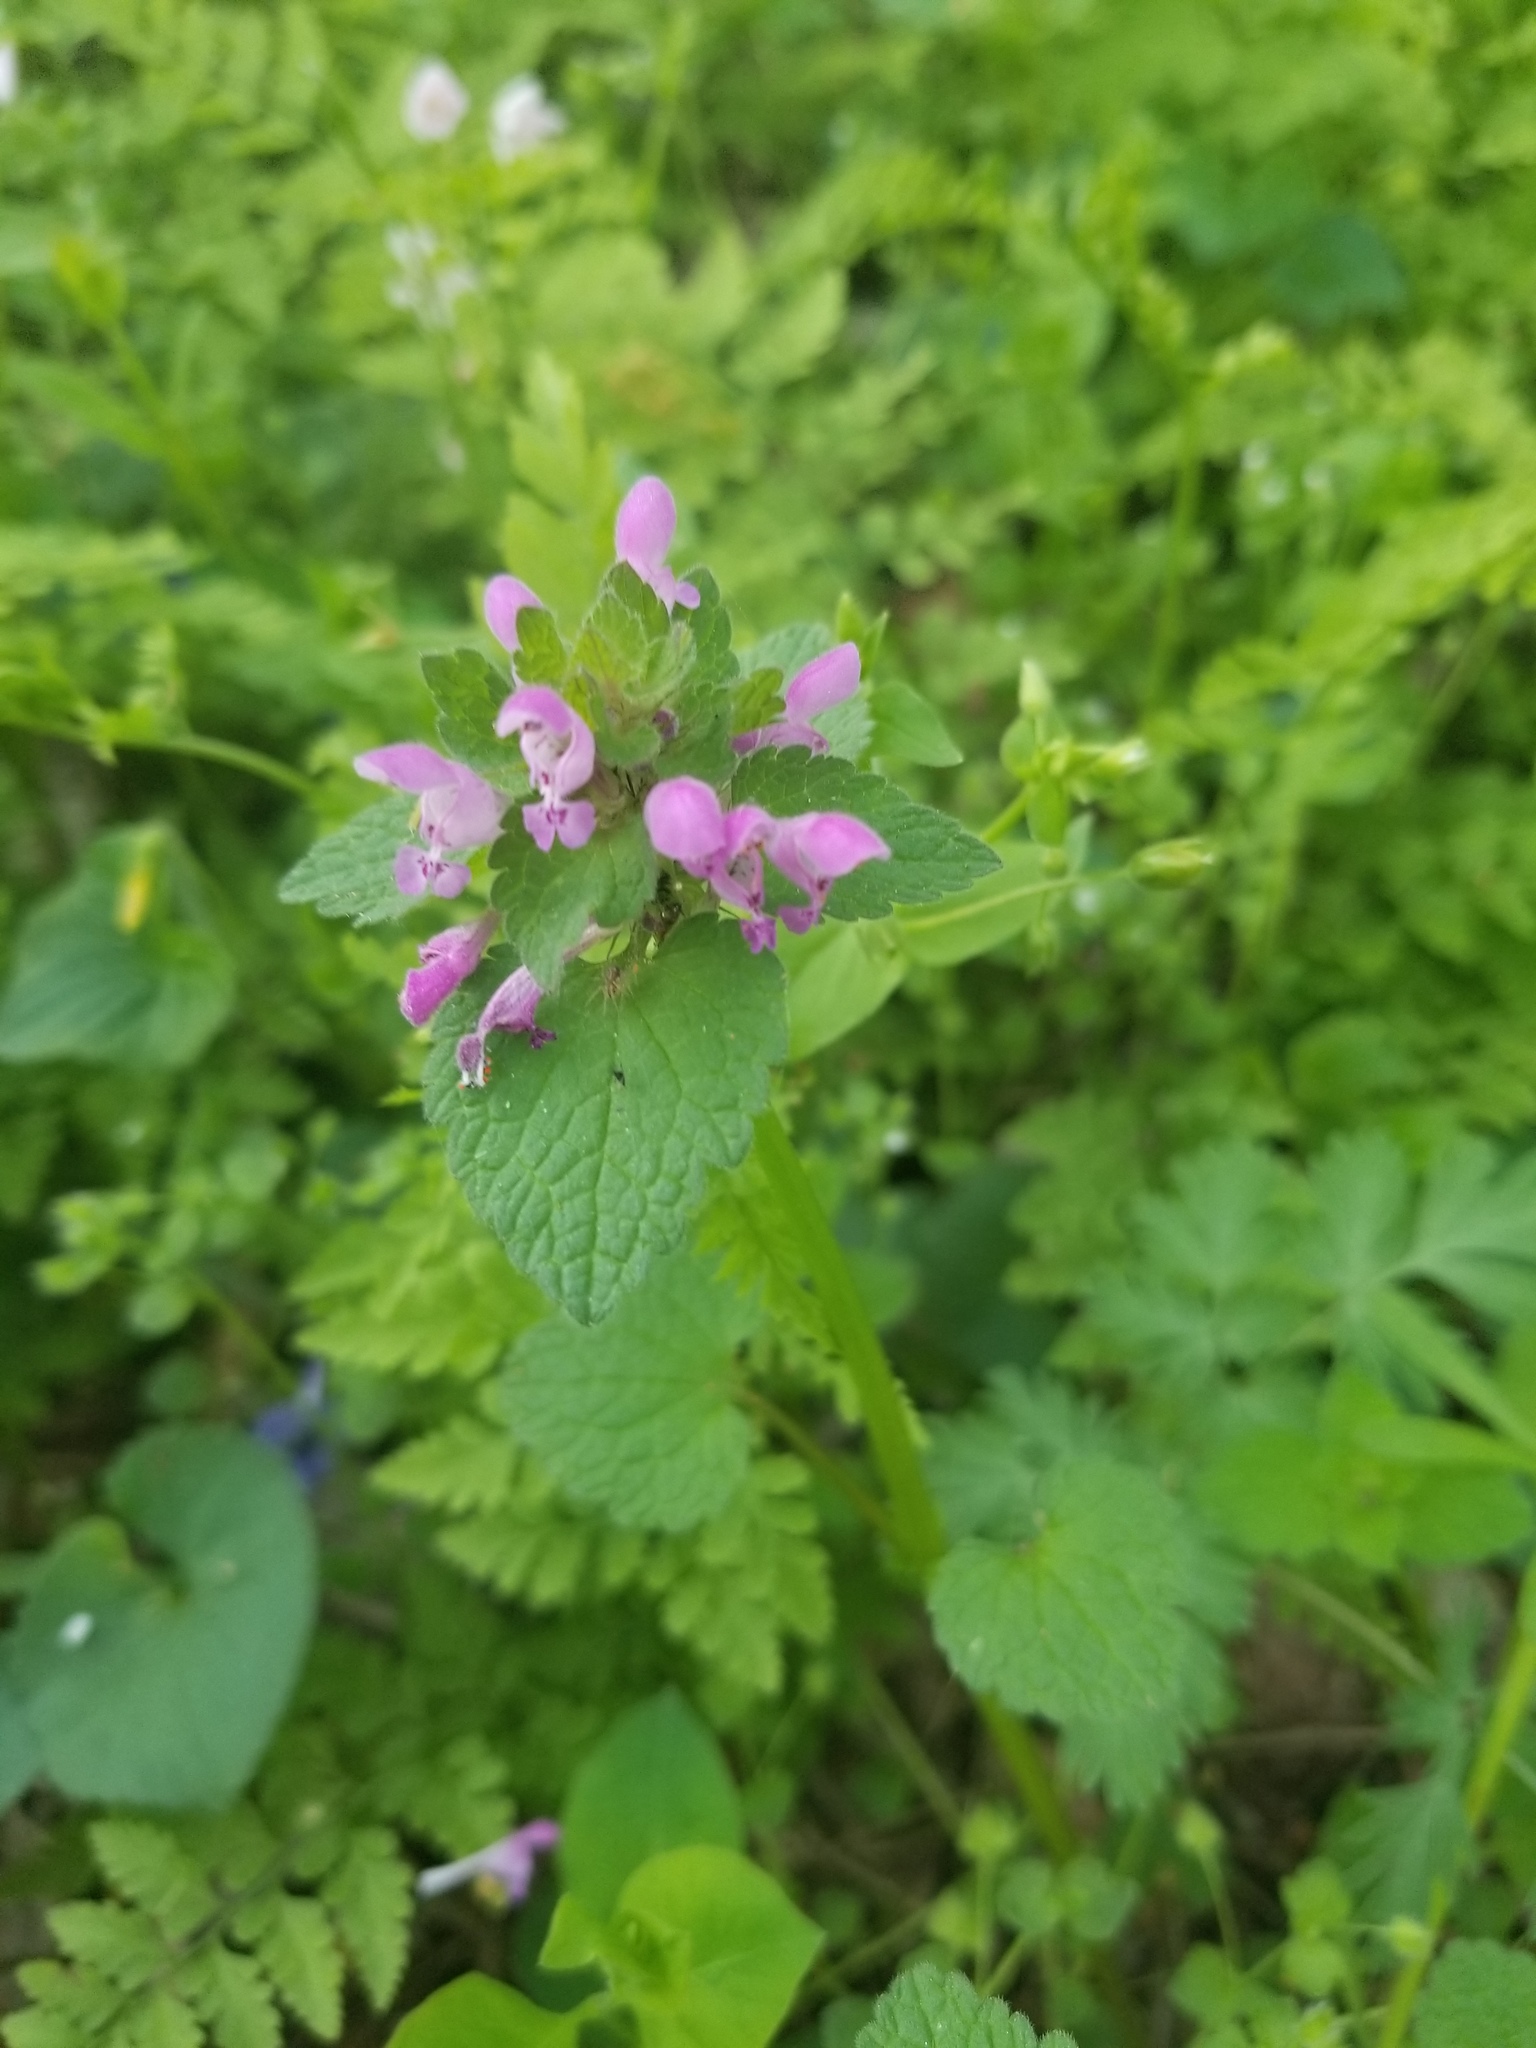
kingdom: Plantae
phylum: Tracheophyta
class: Magnoliopsida
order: Lamiales
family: Lamiaceae
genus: Lamium
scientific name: Lamium purpureum
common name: Red dead-nettle
